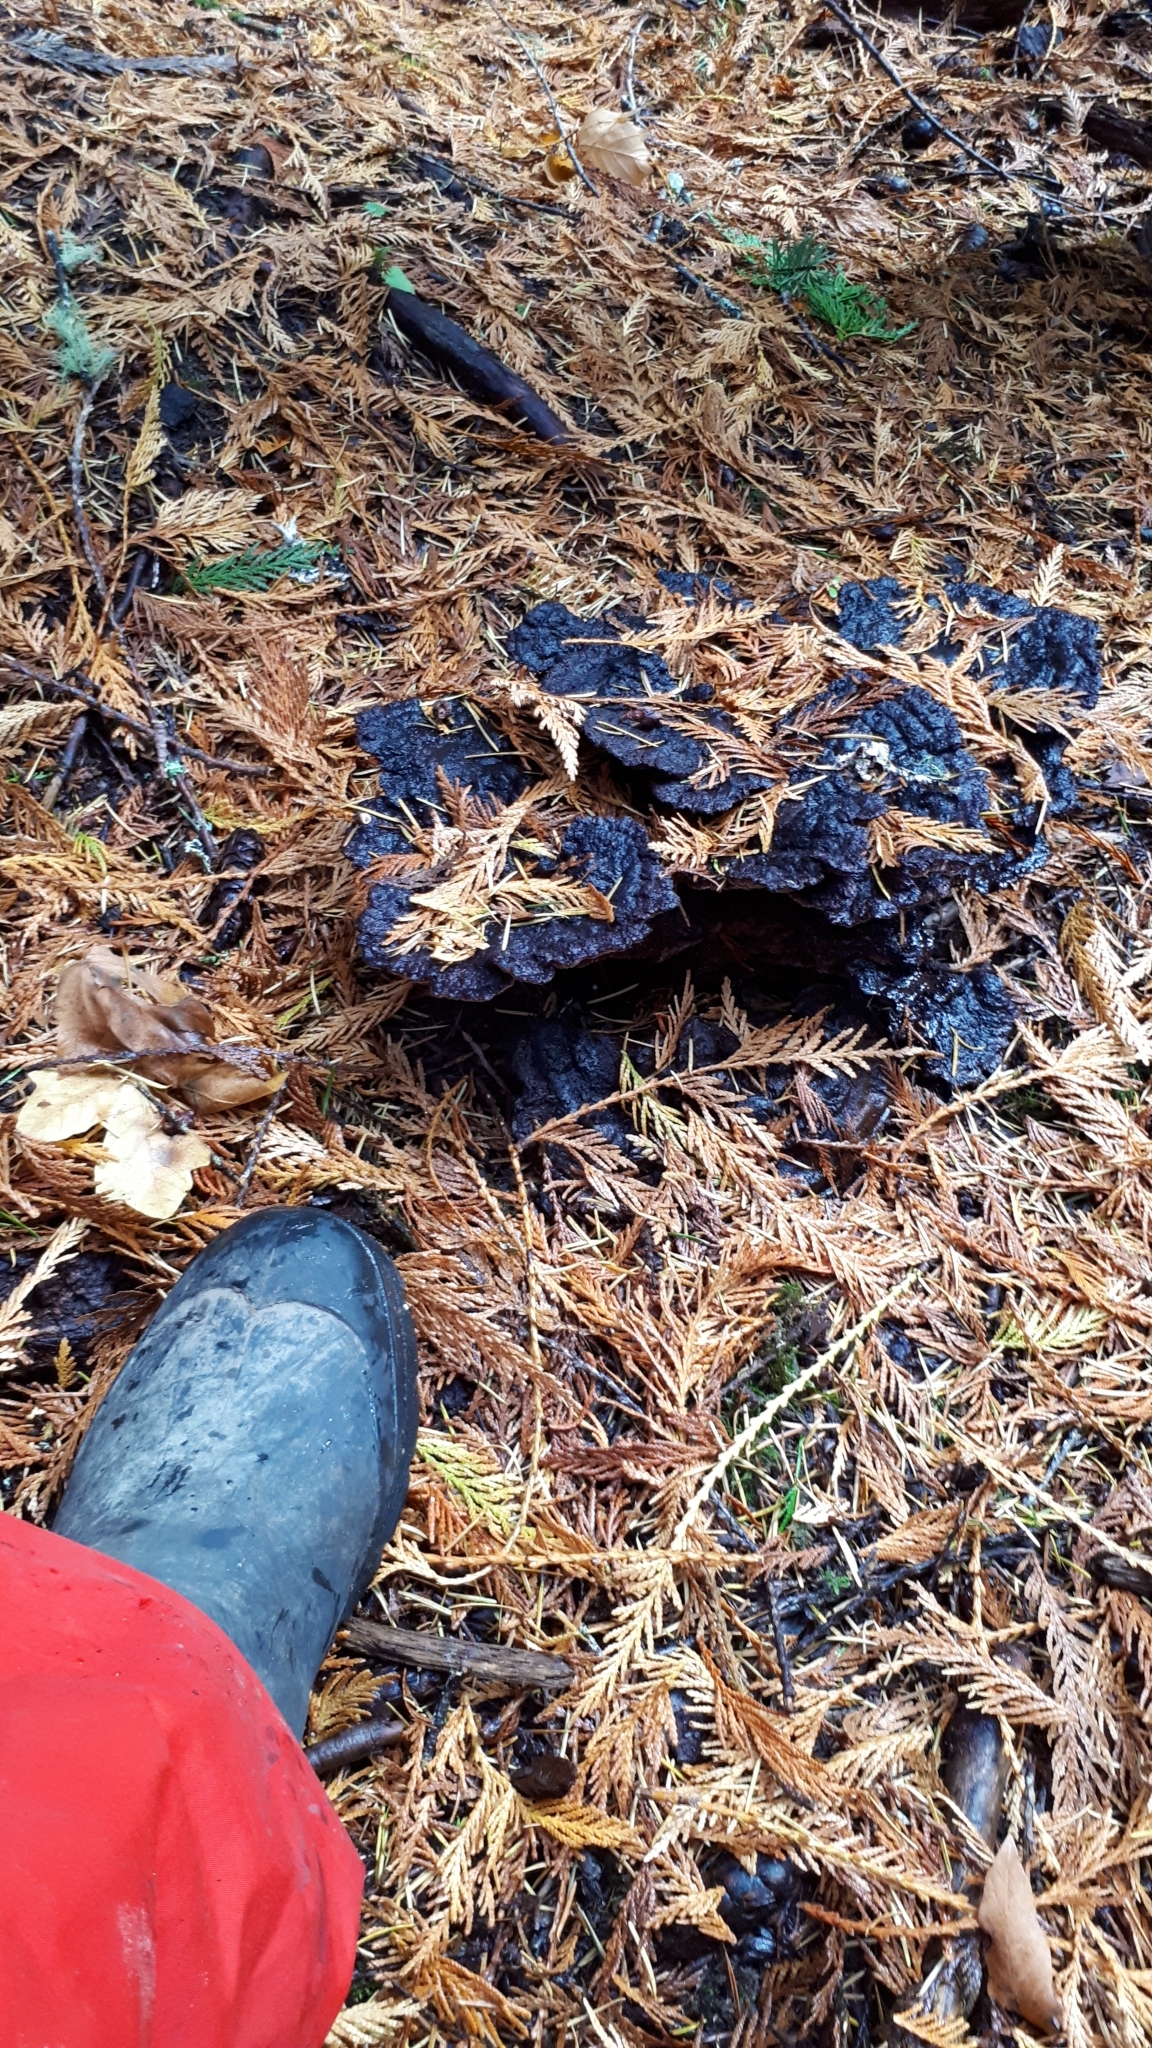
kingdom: Fungi
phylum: Basidiomycota
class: Agaricomycetes
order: Polyporales
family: Laetiporaceae
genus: Phaeolus
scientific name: Phaeolus schweinitzii
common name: Dyer's mazegill
